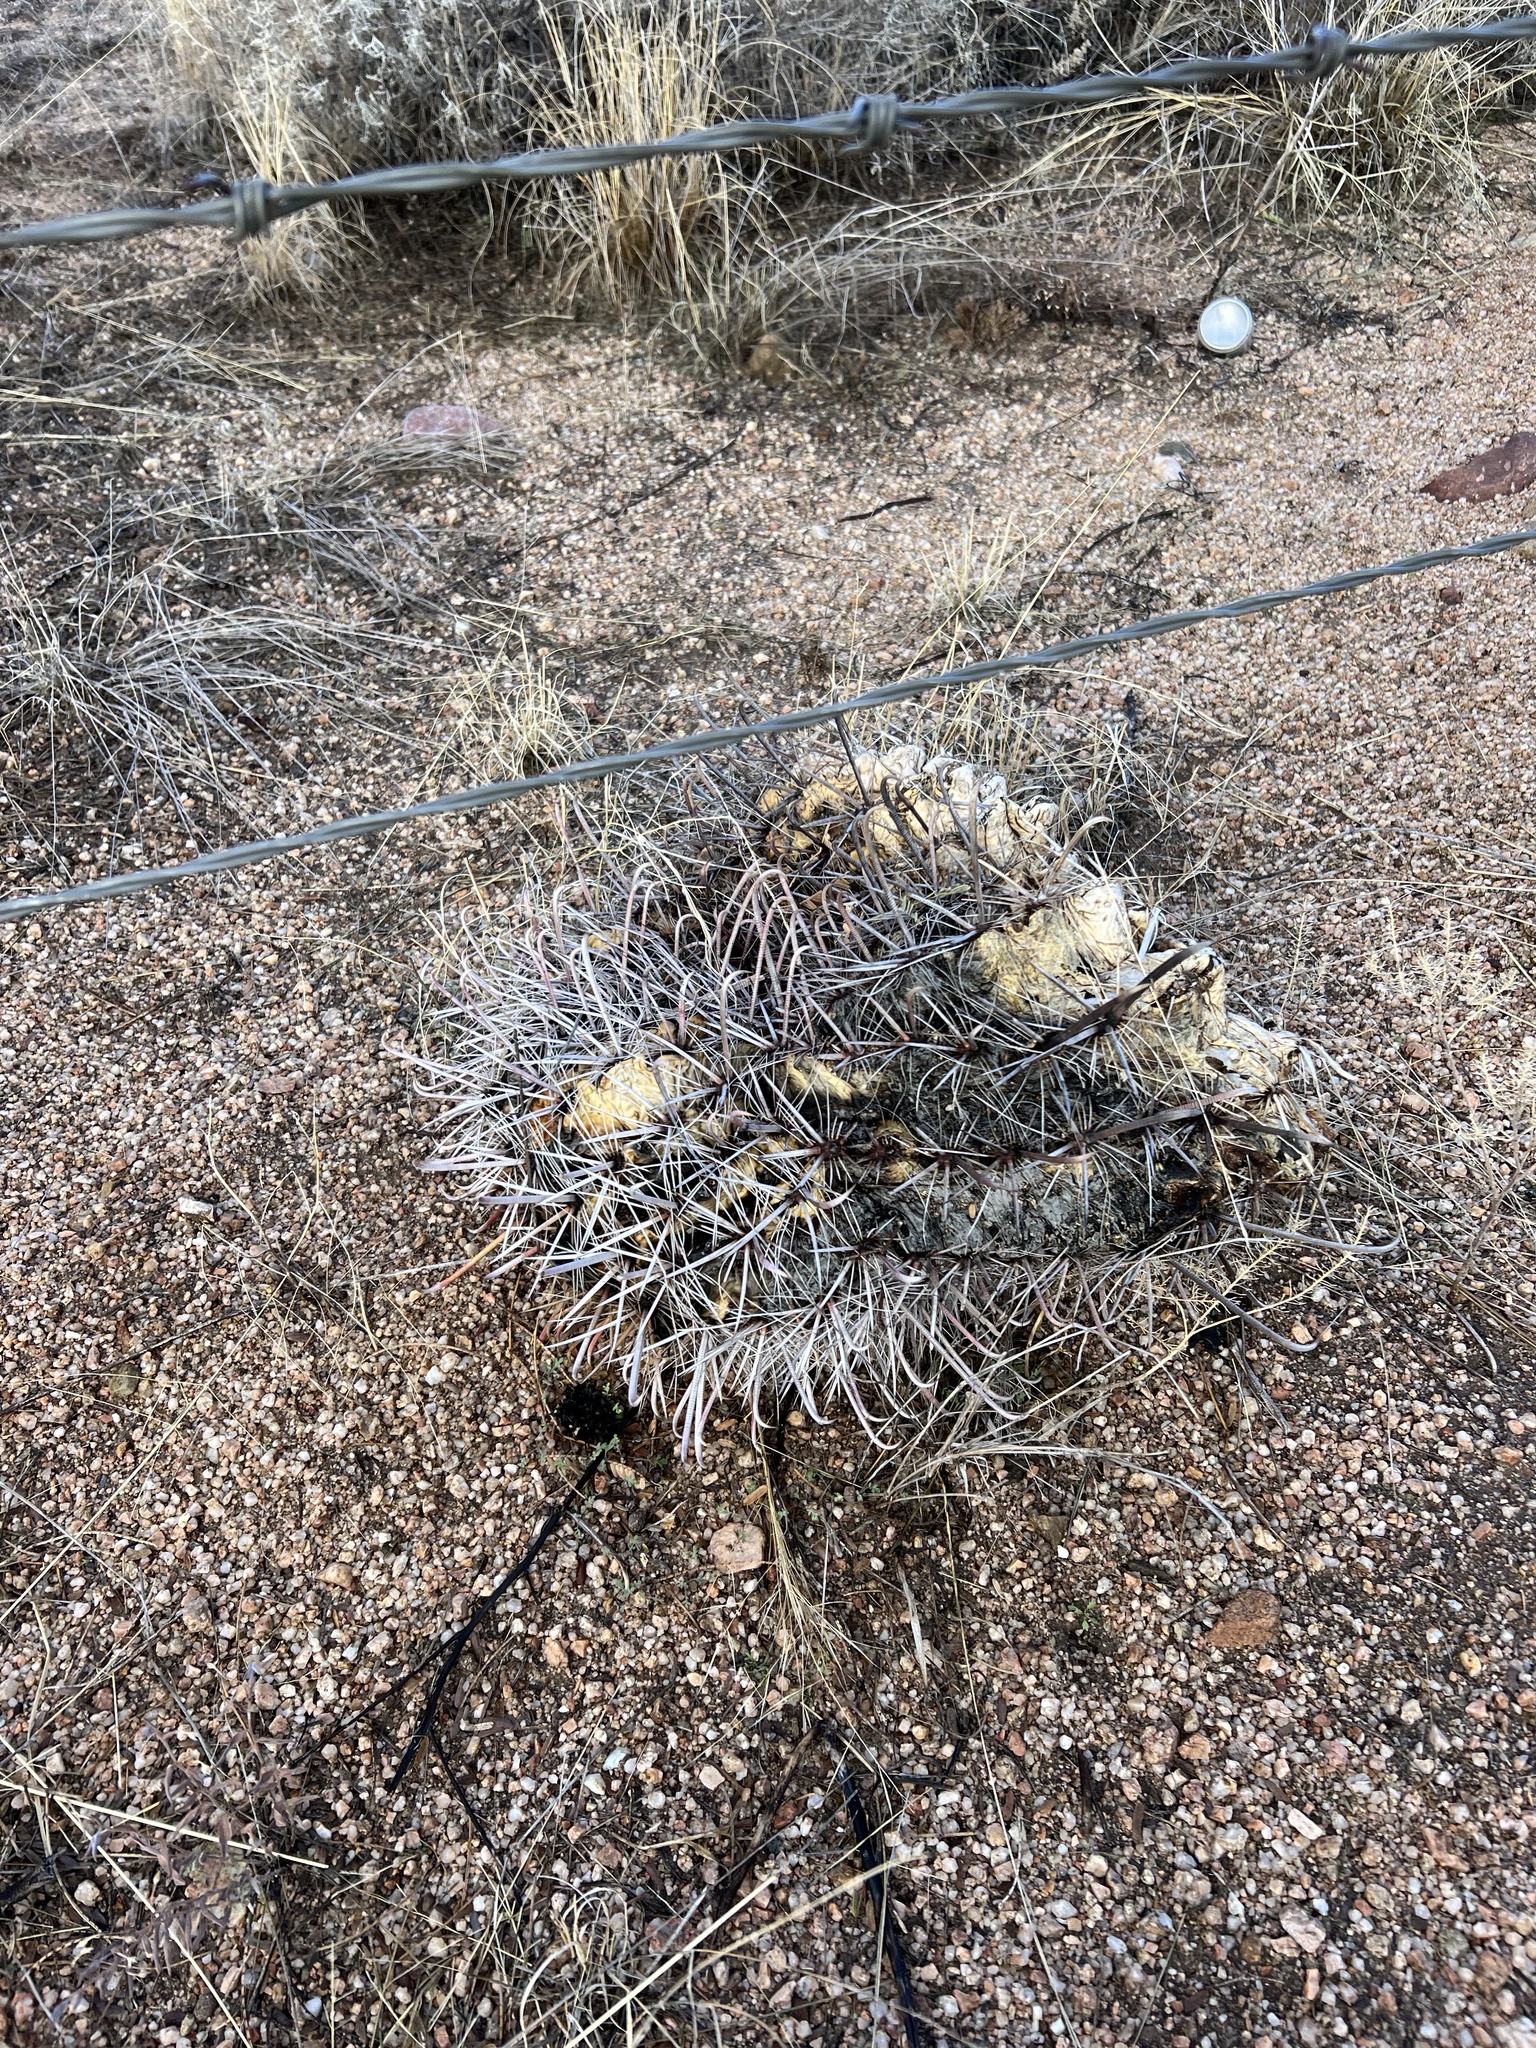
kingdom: Plantae
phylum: Tracheophyta
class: Magnoliopsida
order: Caryophyllales
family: Cactaceae
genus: Ferocactus
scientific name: Ferocactus wislizeni
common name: Candy barrel cactus
